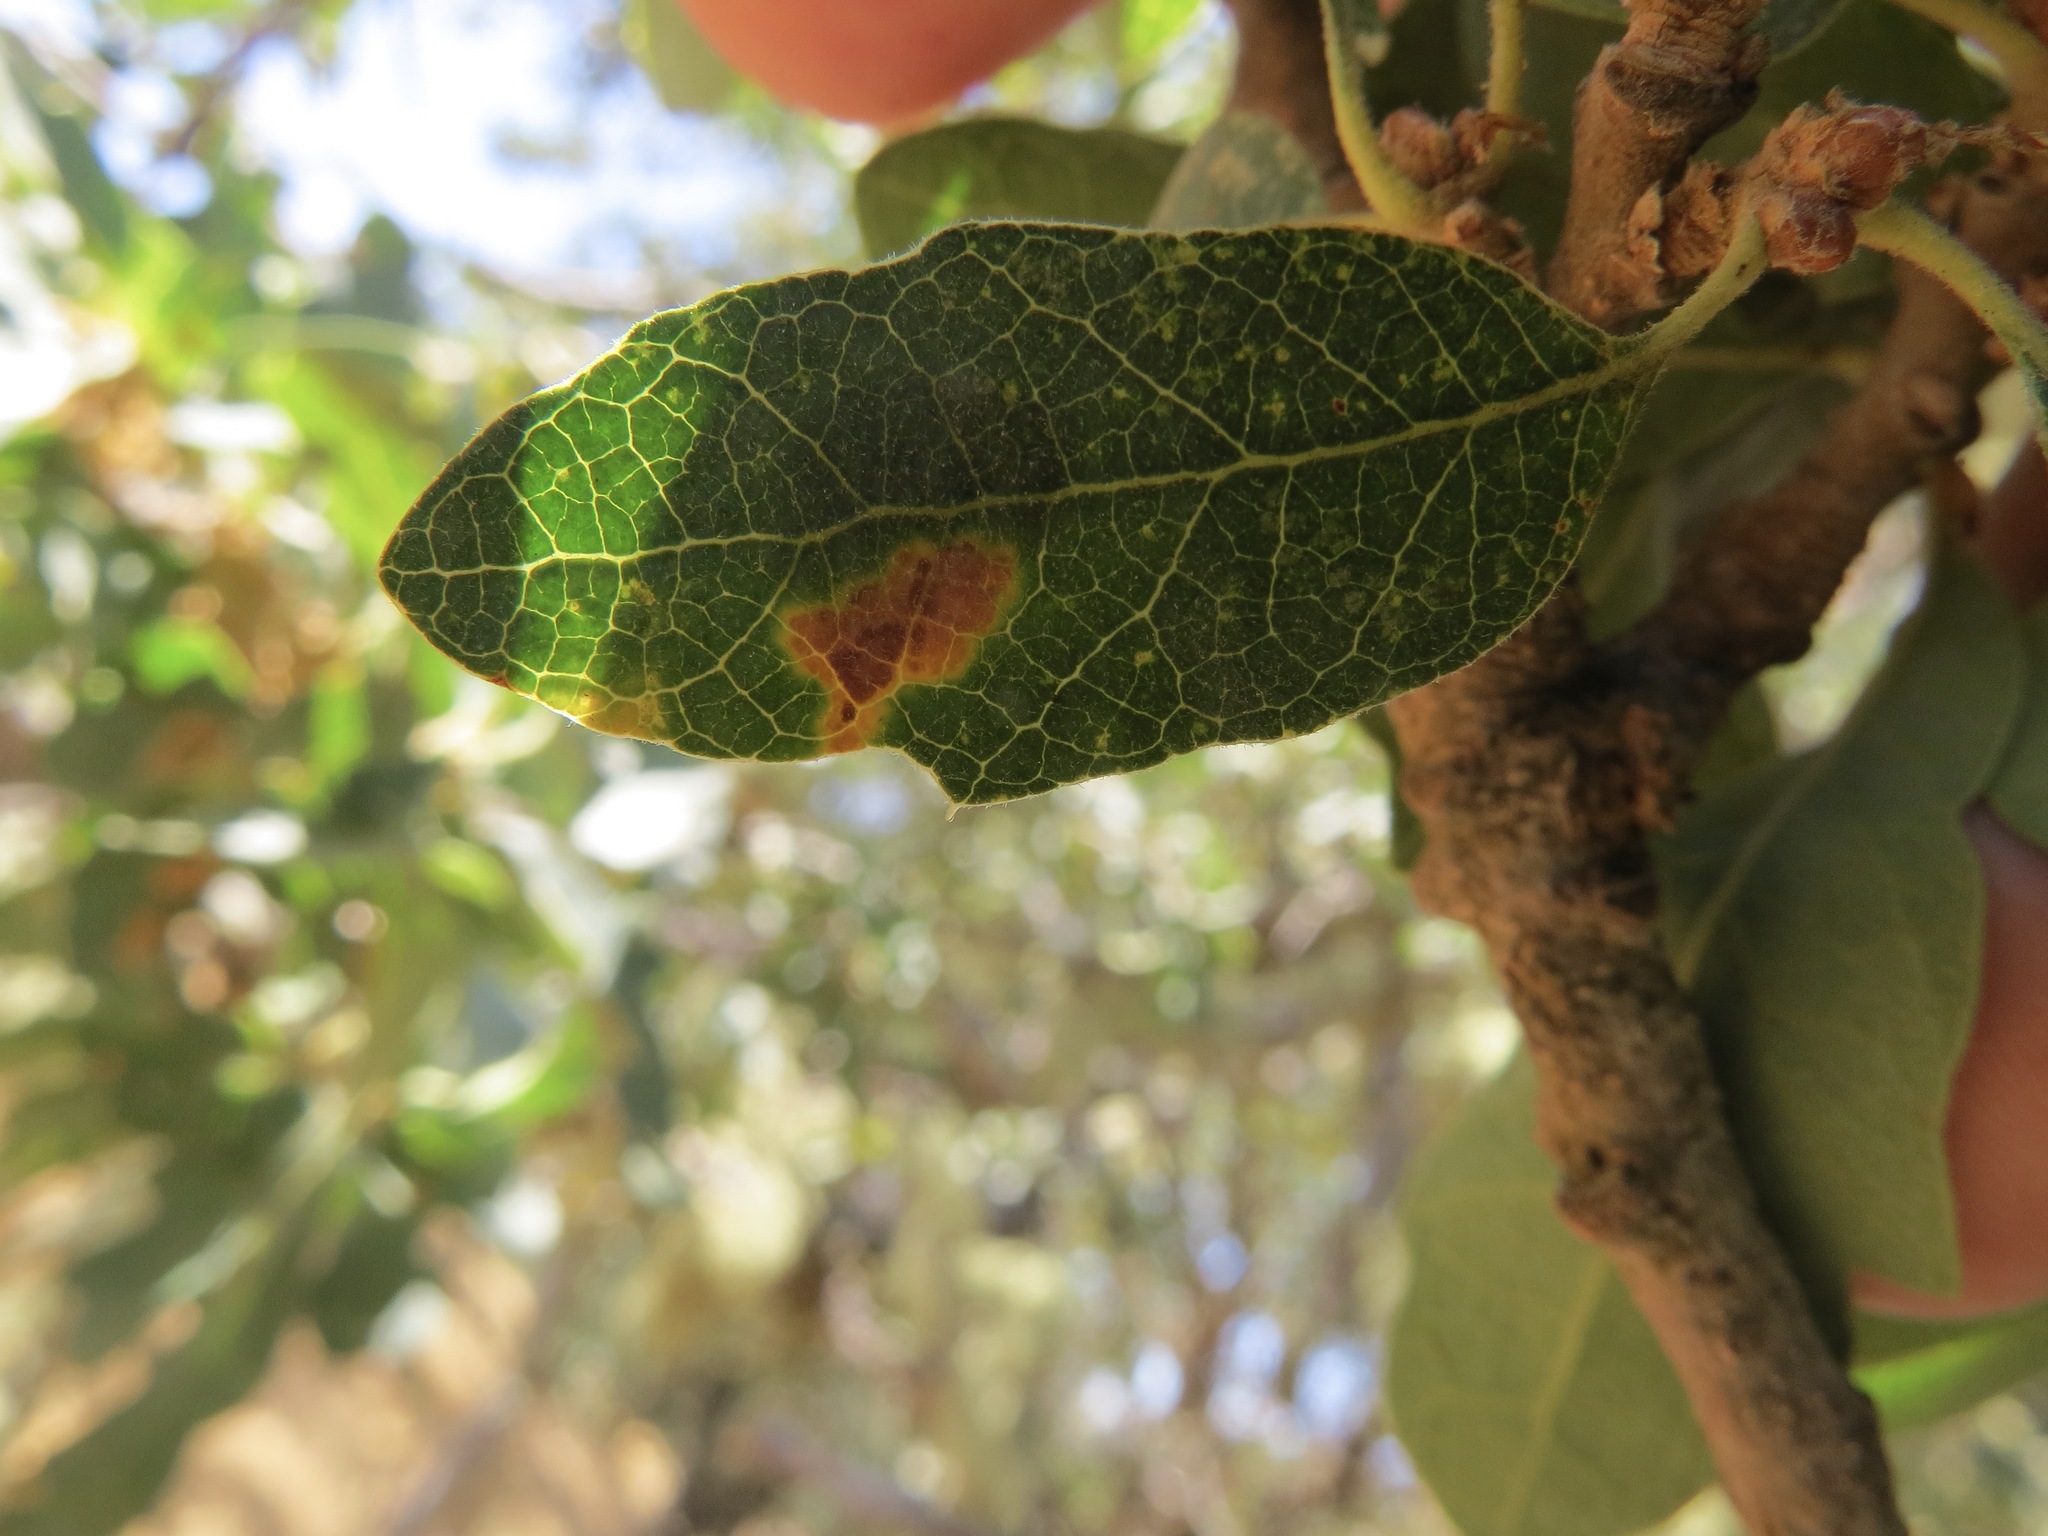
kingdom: Animalia
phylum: Arthropoda
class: Insecta
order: Hymenoptera
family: Cynipidae
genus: Andricus
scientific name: Andricus
